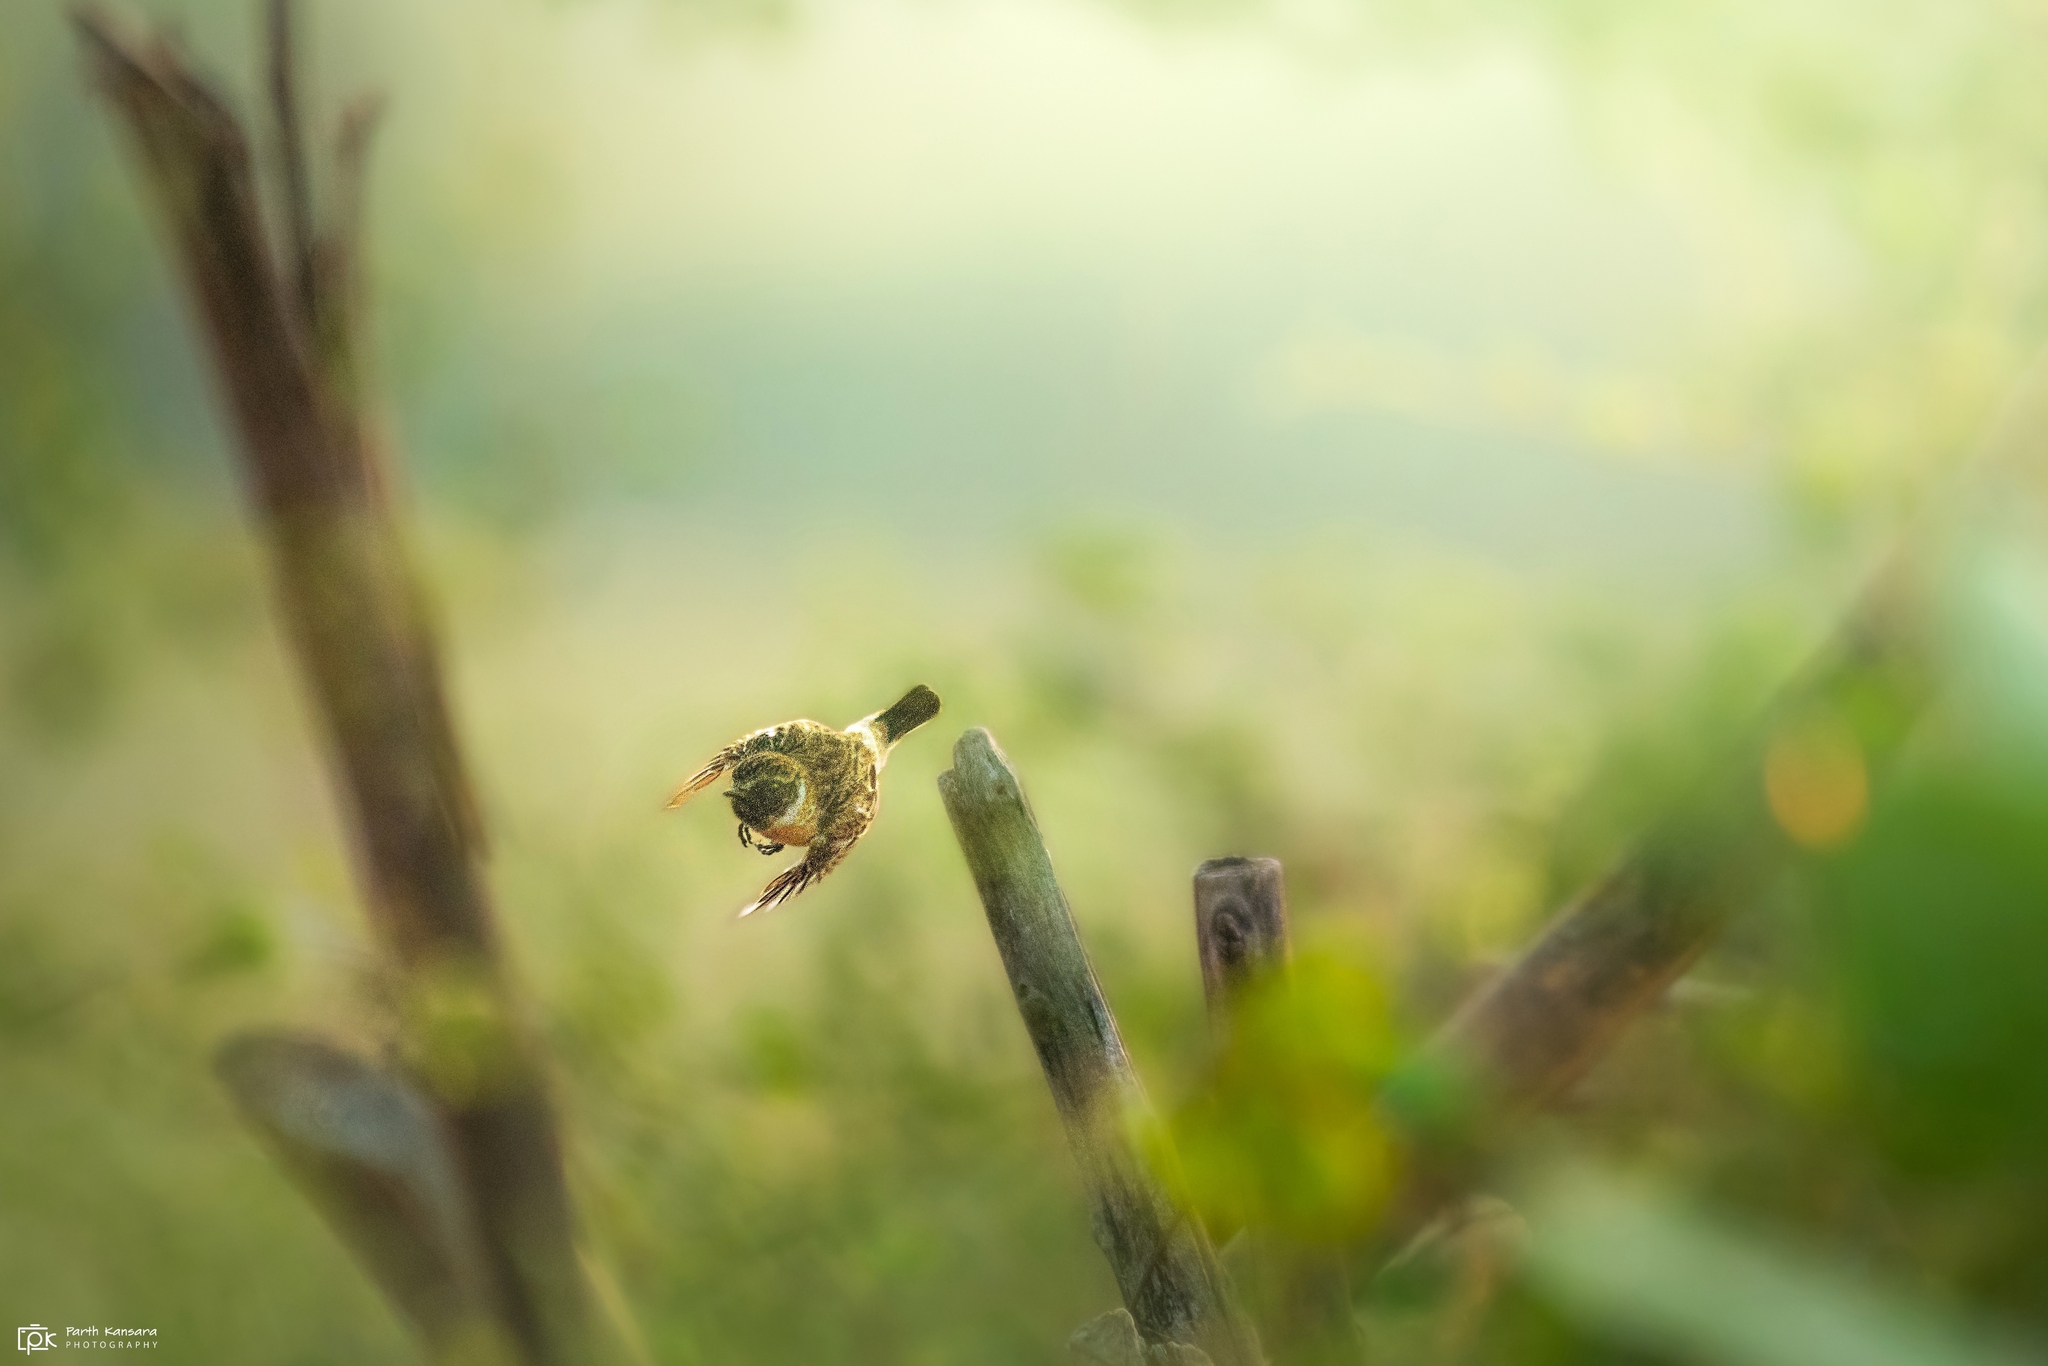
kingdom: Animalia
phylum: Chordata
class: Aves
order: Passeriformes
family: Muscicapidae
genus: Saxicola
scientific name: Saxicola maurus
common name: Siberian stonechat
